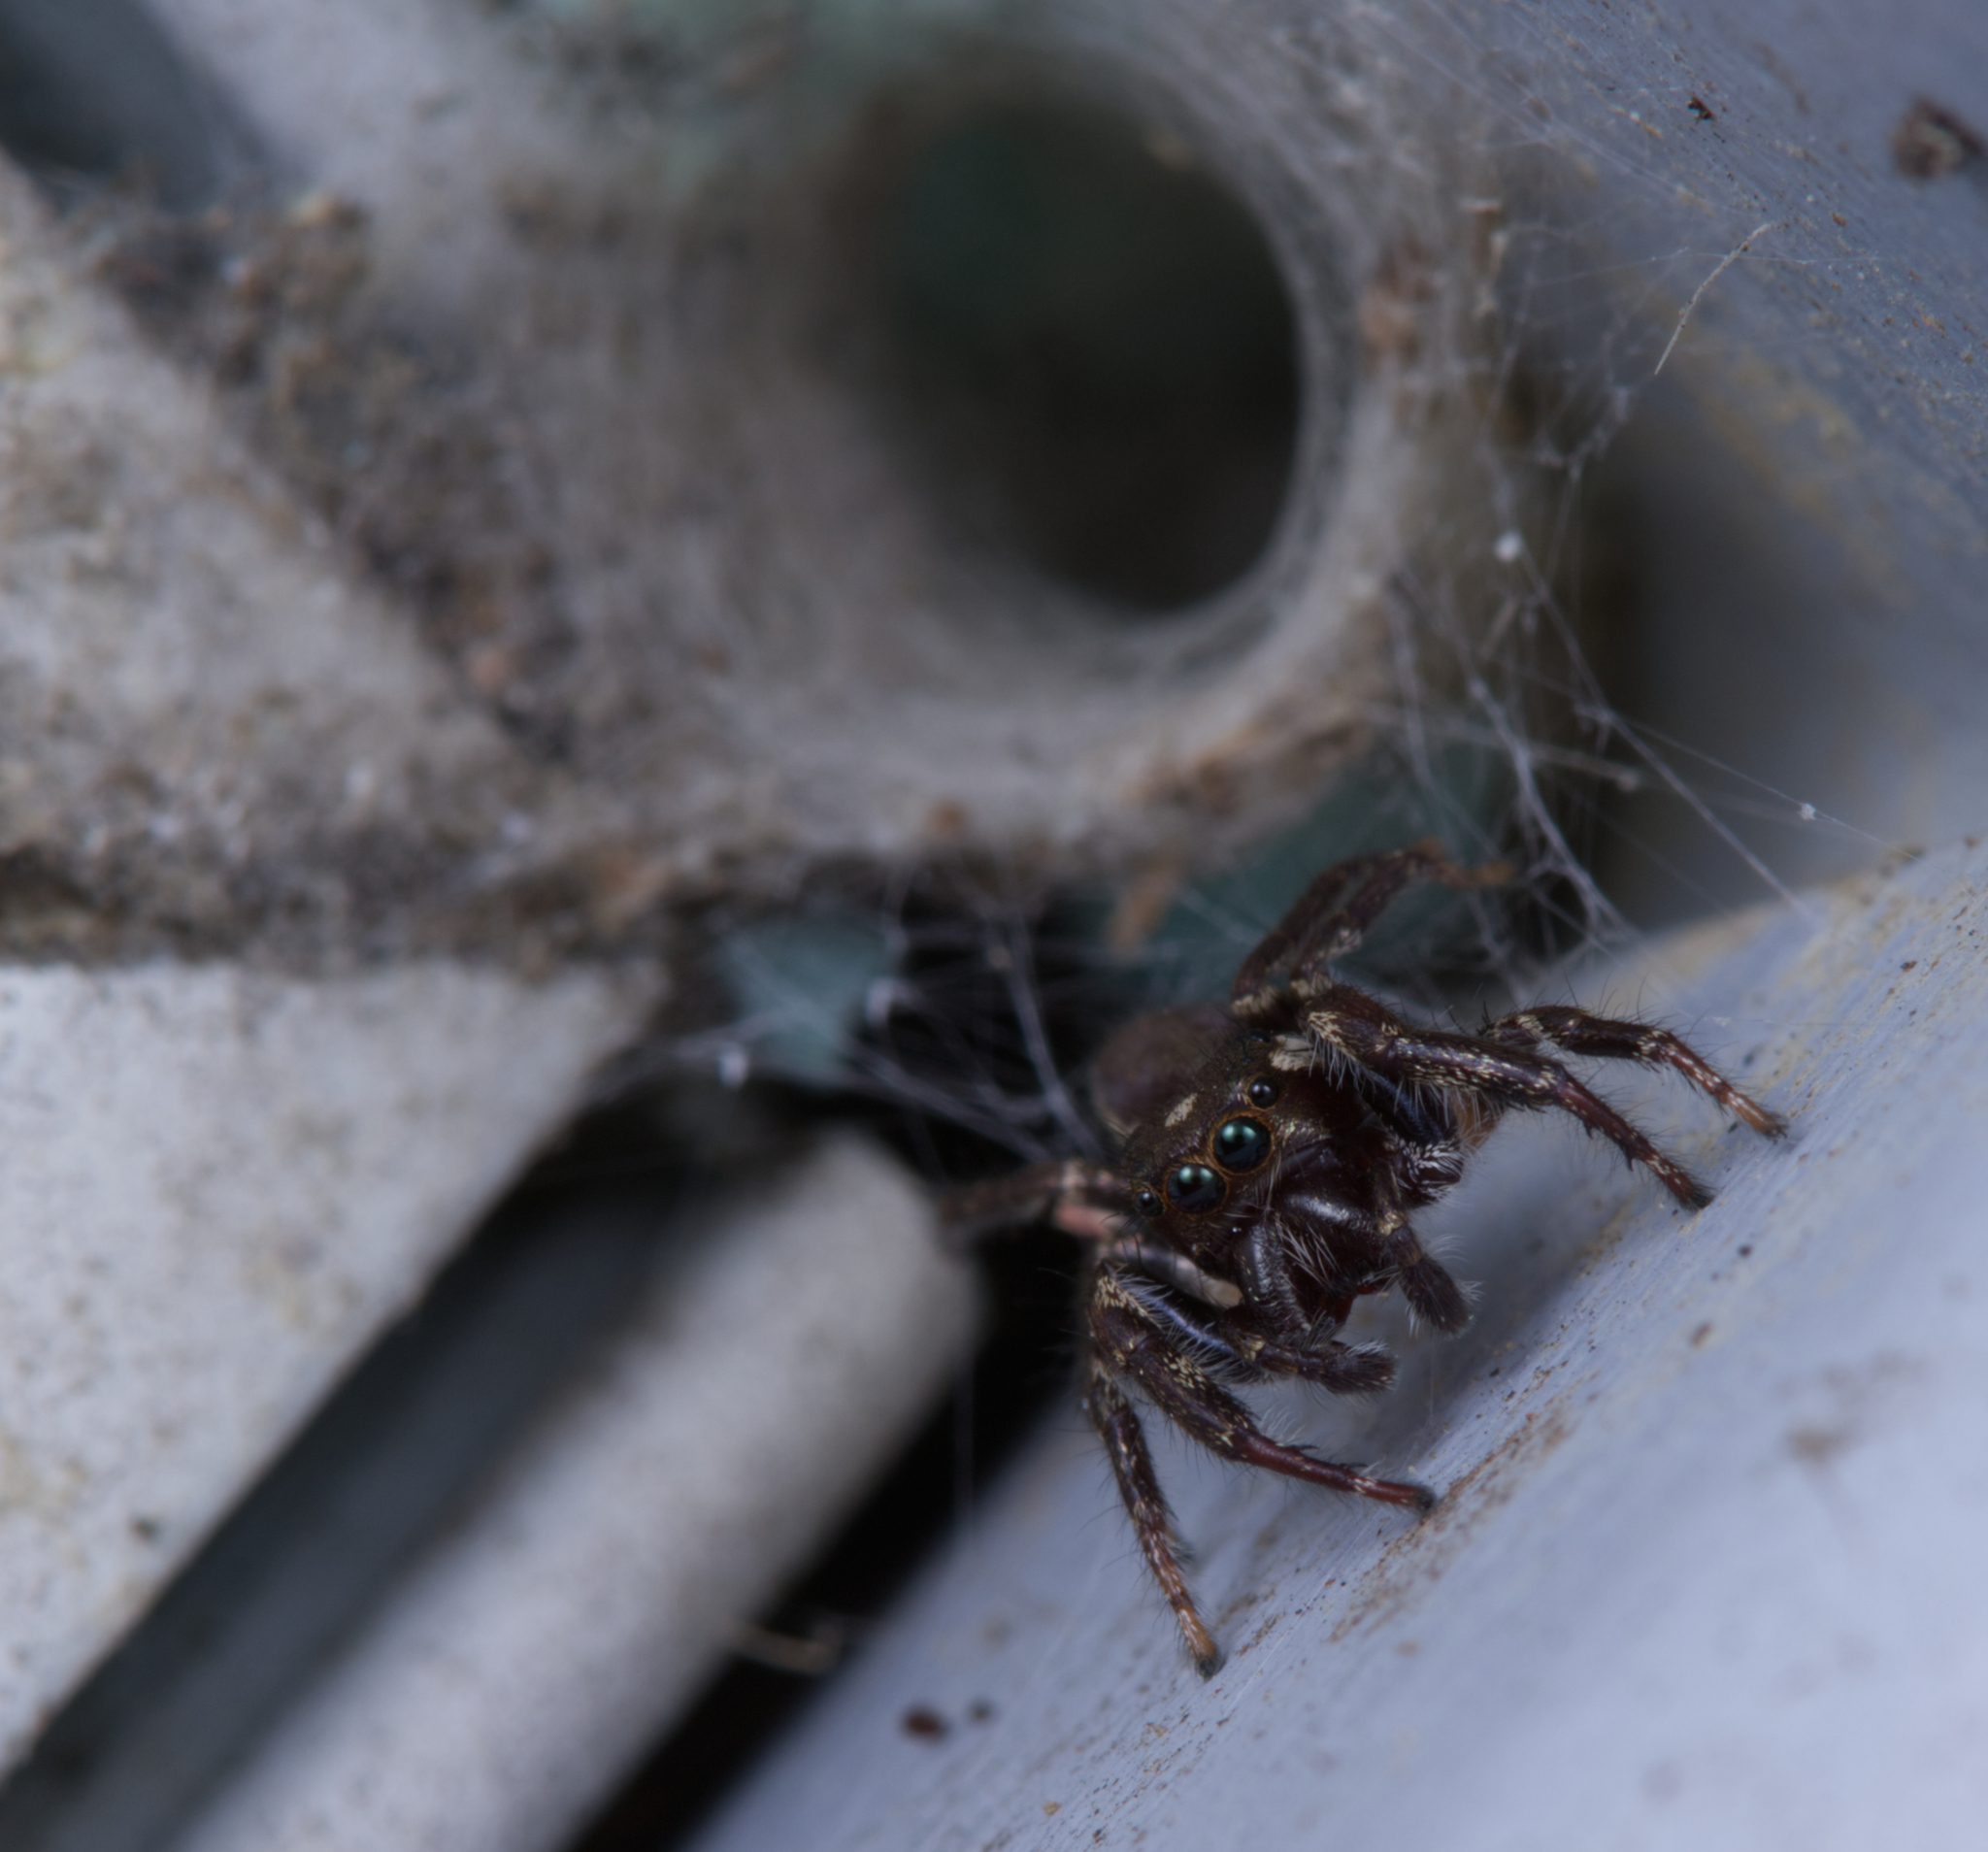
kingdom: Animalia
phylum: Arthropoda
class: Arachnida
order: Araneae
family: Salticidae
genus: Eris
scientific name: Eris militaris
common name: Bronze jumper
